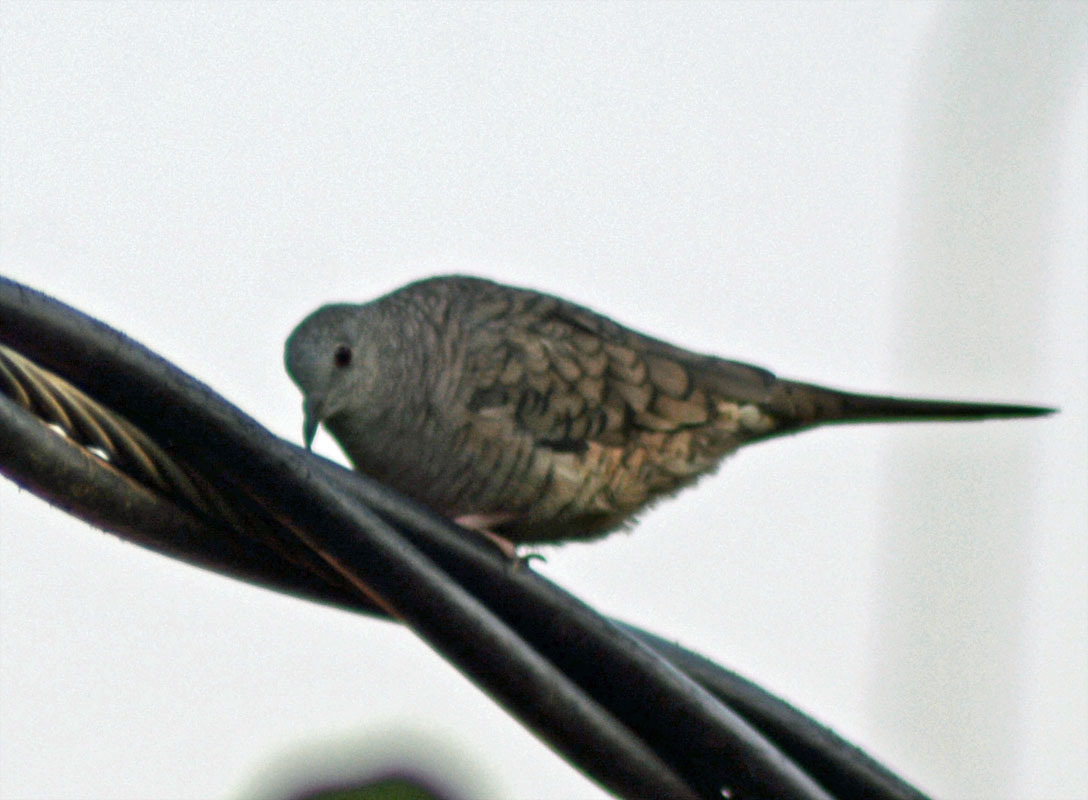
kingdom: Animalia
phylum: Chordata
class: Aves
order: Columbiformes
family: Columbidae
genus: Columbina
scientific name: Columbina inca
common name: Inca dove
